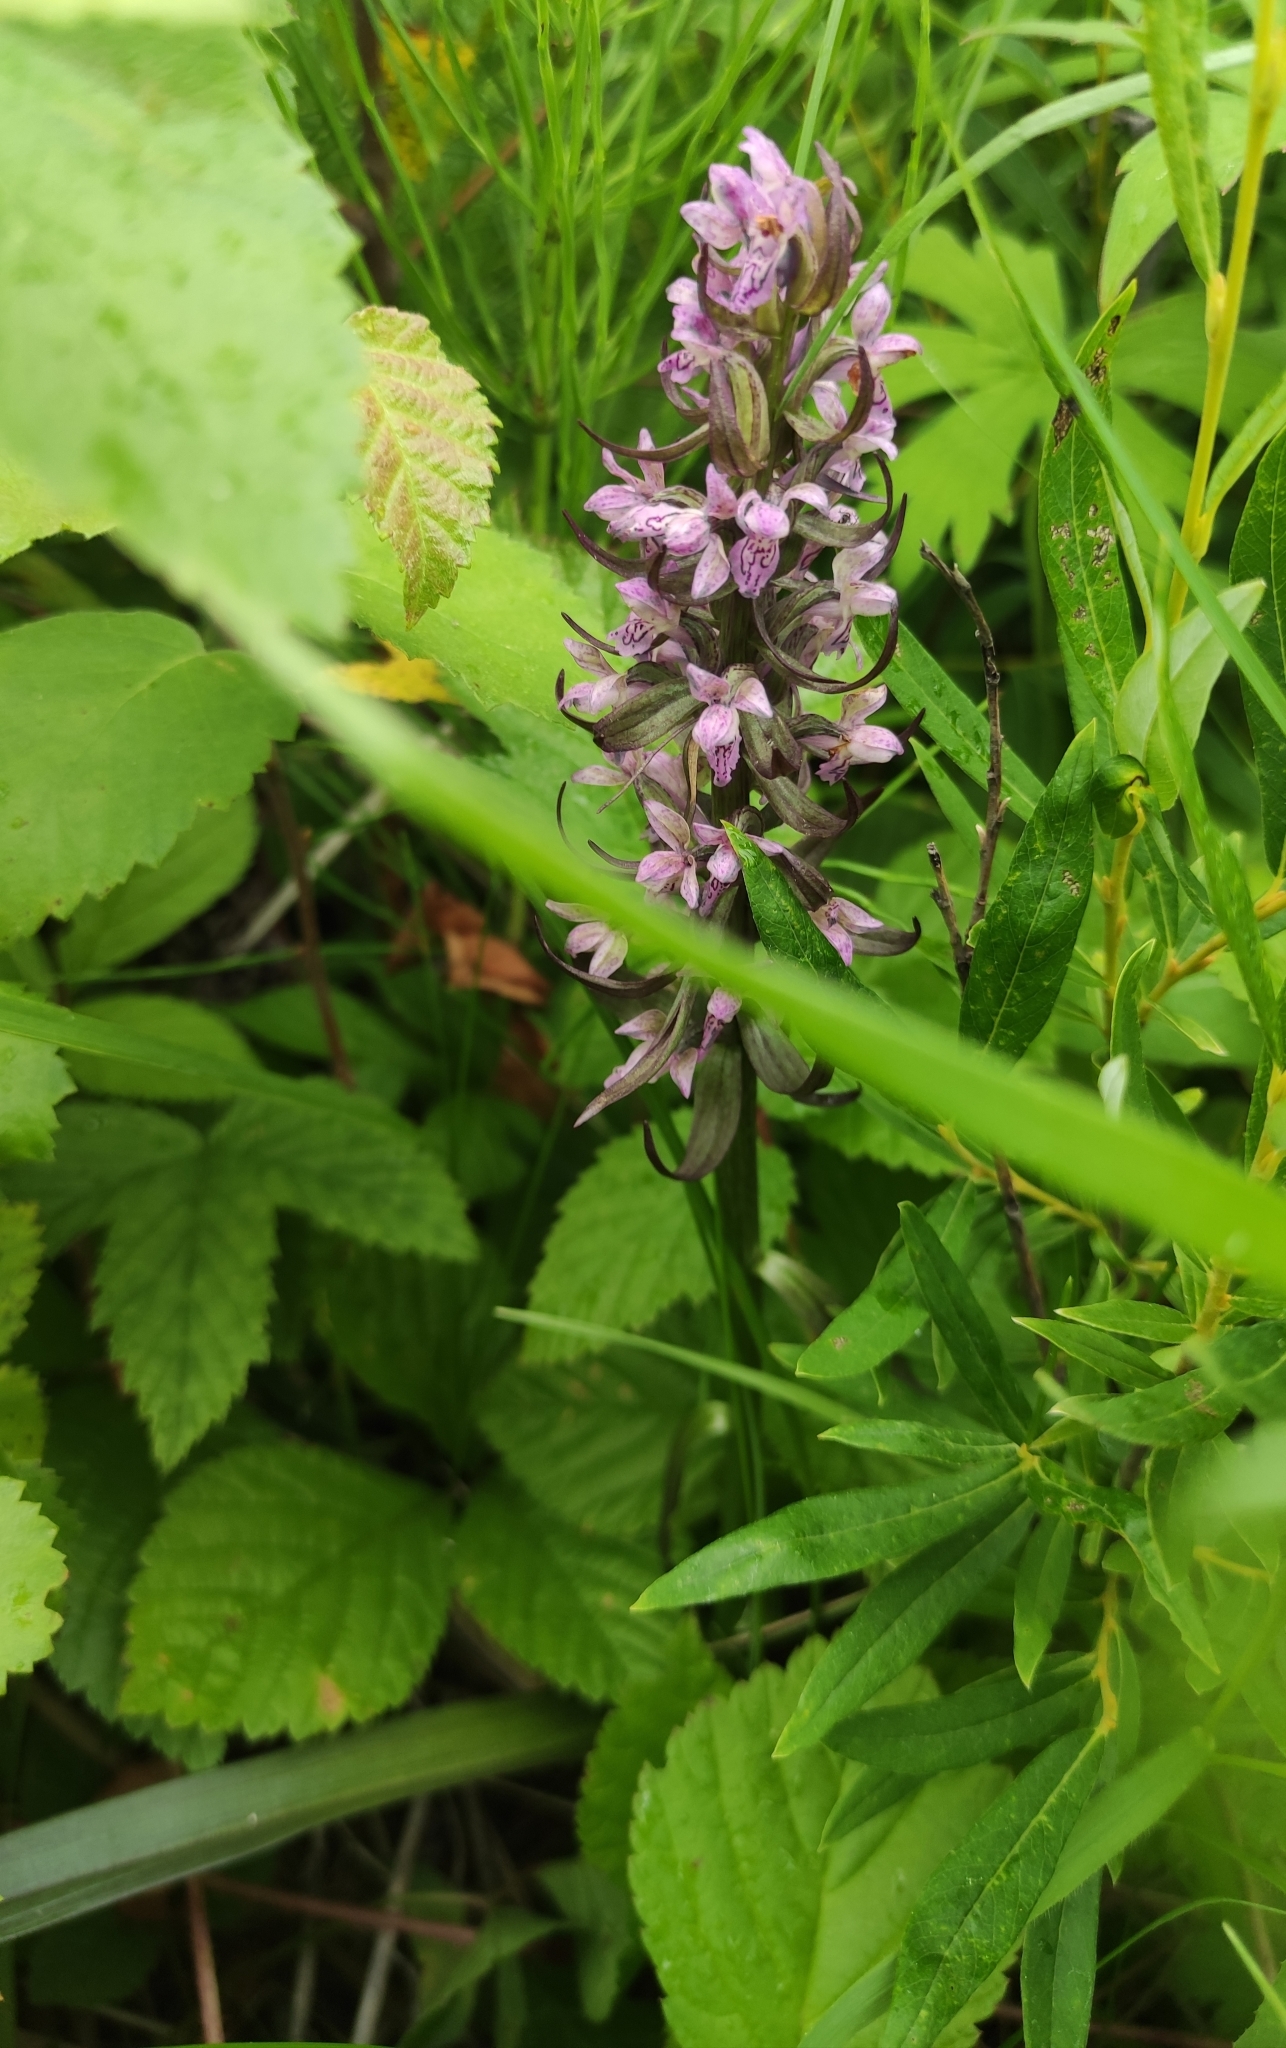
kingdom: Plantae
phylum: Tracheophyta
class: Liliopsida
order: Asparagales
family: Orchidaceae
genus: Dactylorhiza
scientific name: Dactylorhiza incarnata
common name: Early marsh-orchid
